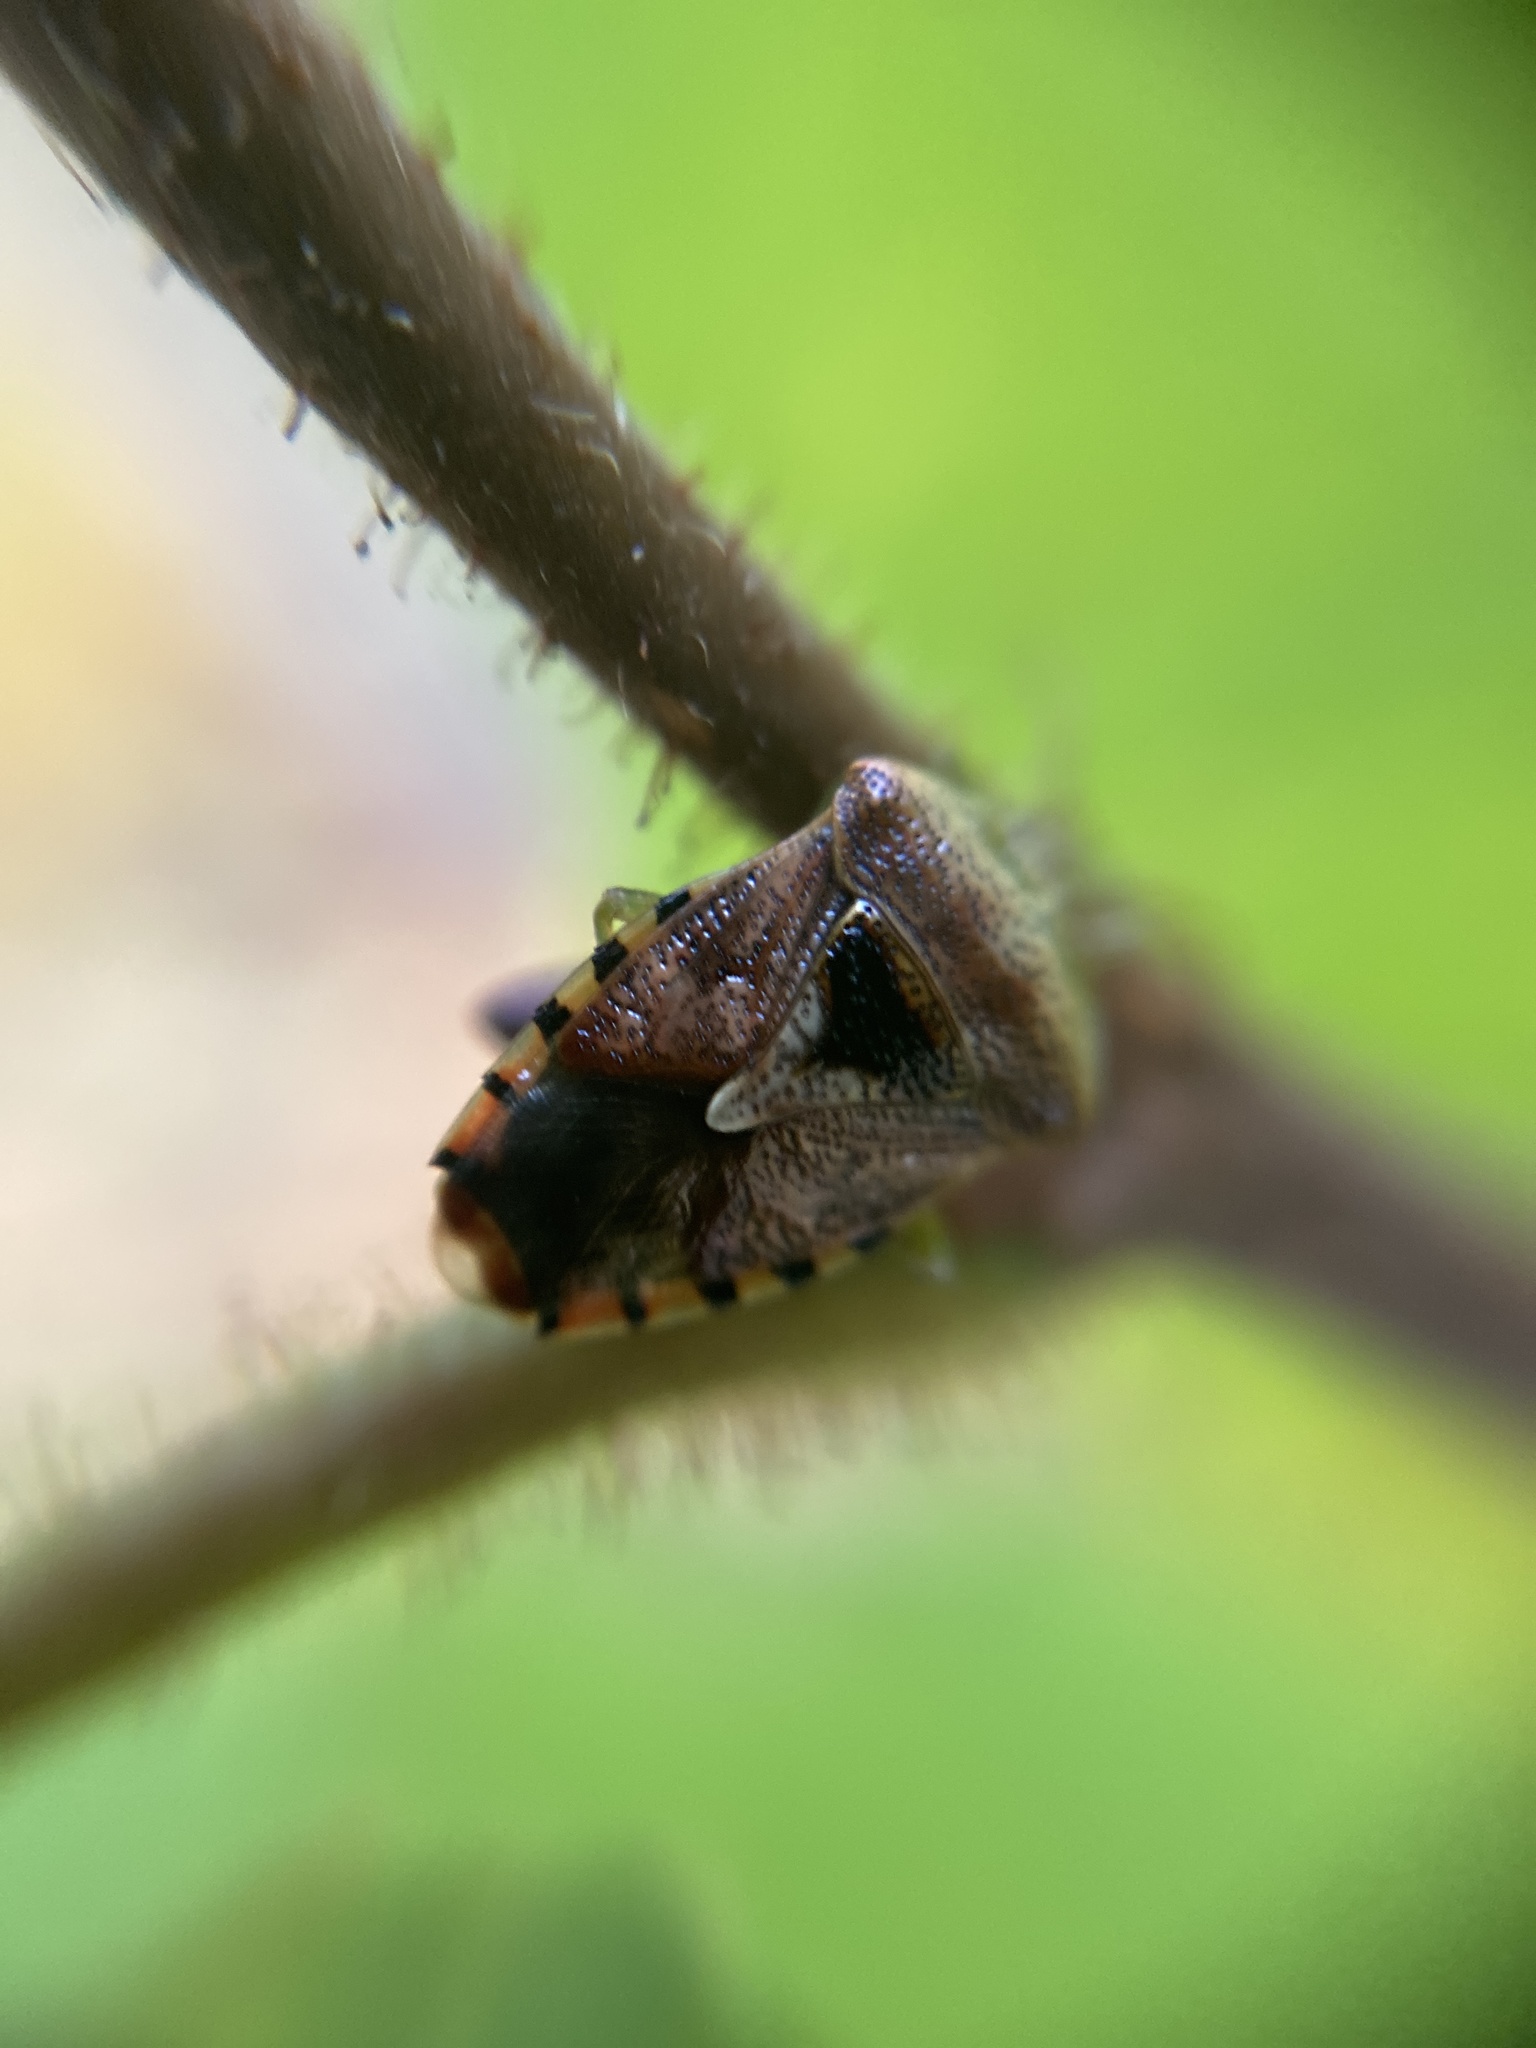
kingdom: Animalia
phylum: Arthropoda
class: Insecta
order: Hemiptera
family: Acanthosomatidae
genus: Elasmucha
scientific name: Elasmucha grisea
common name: Parent bug
